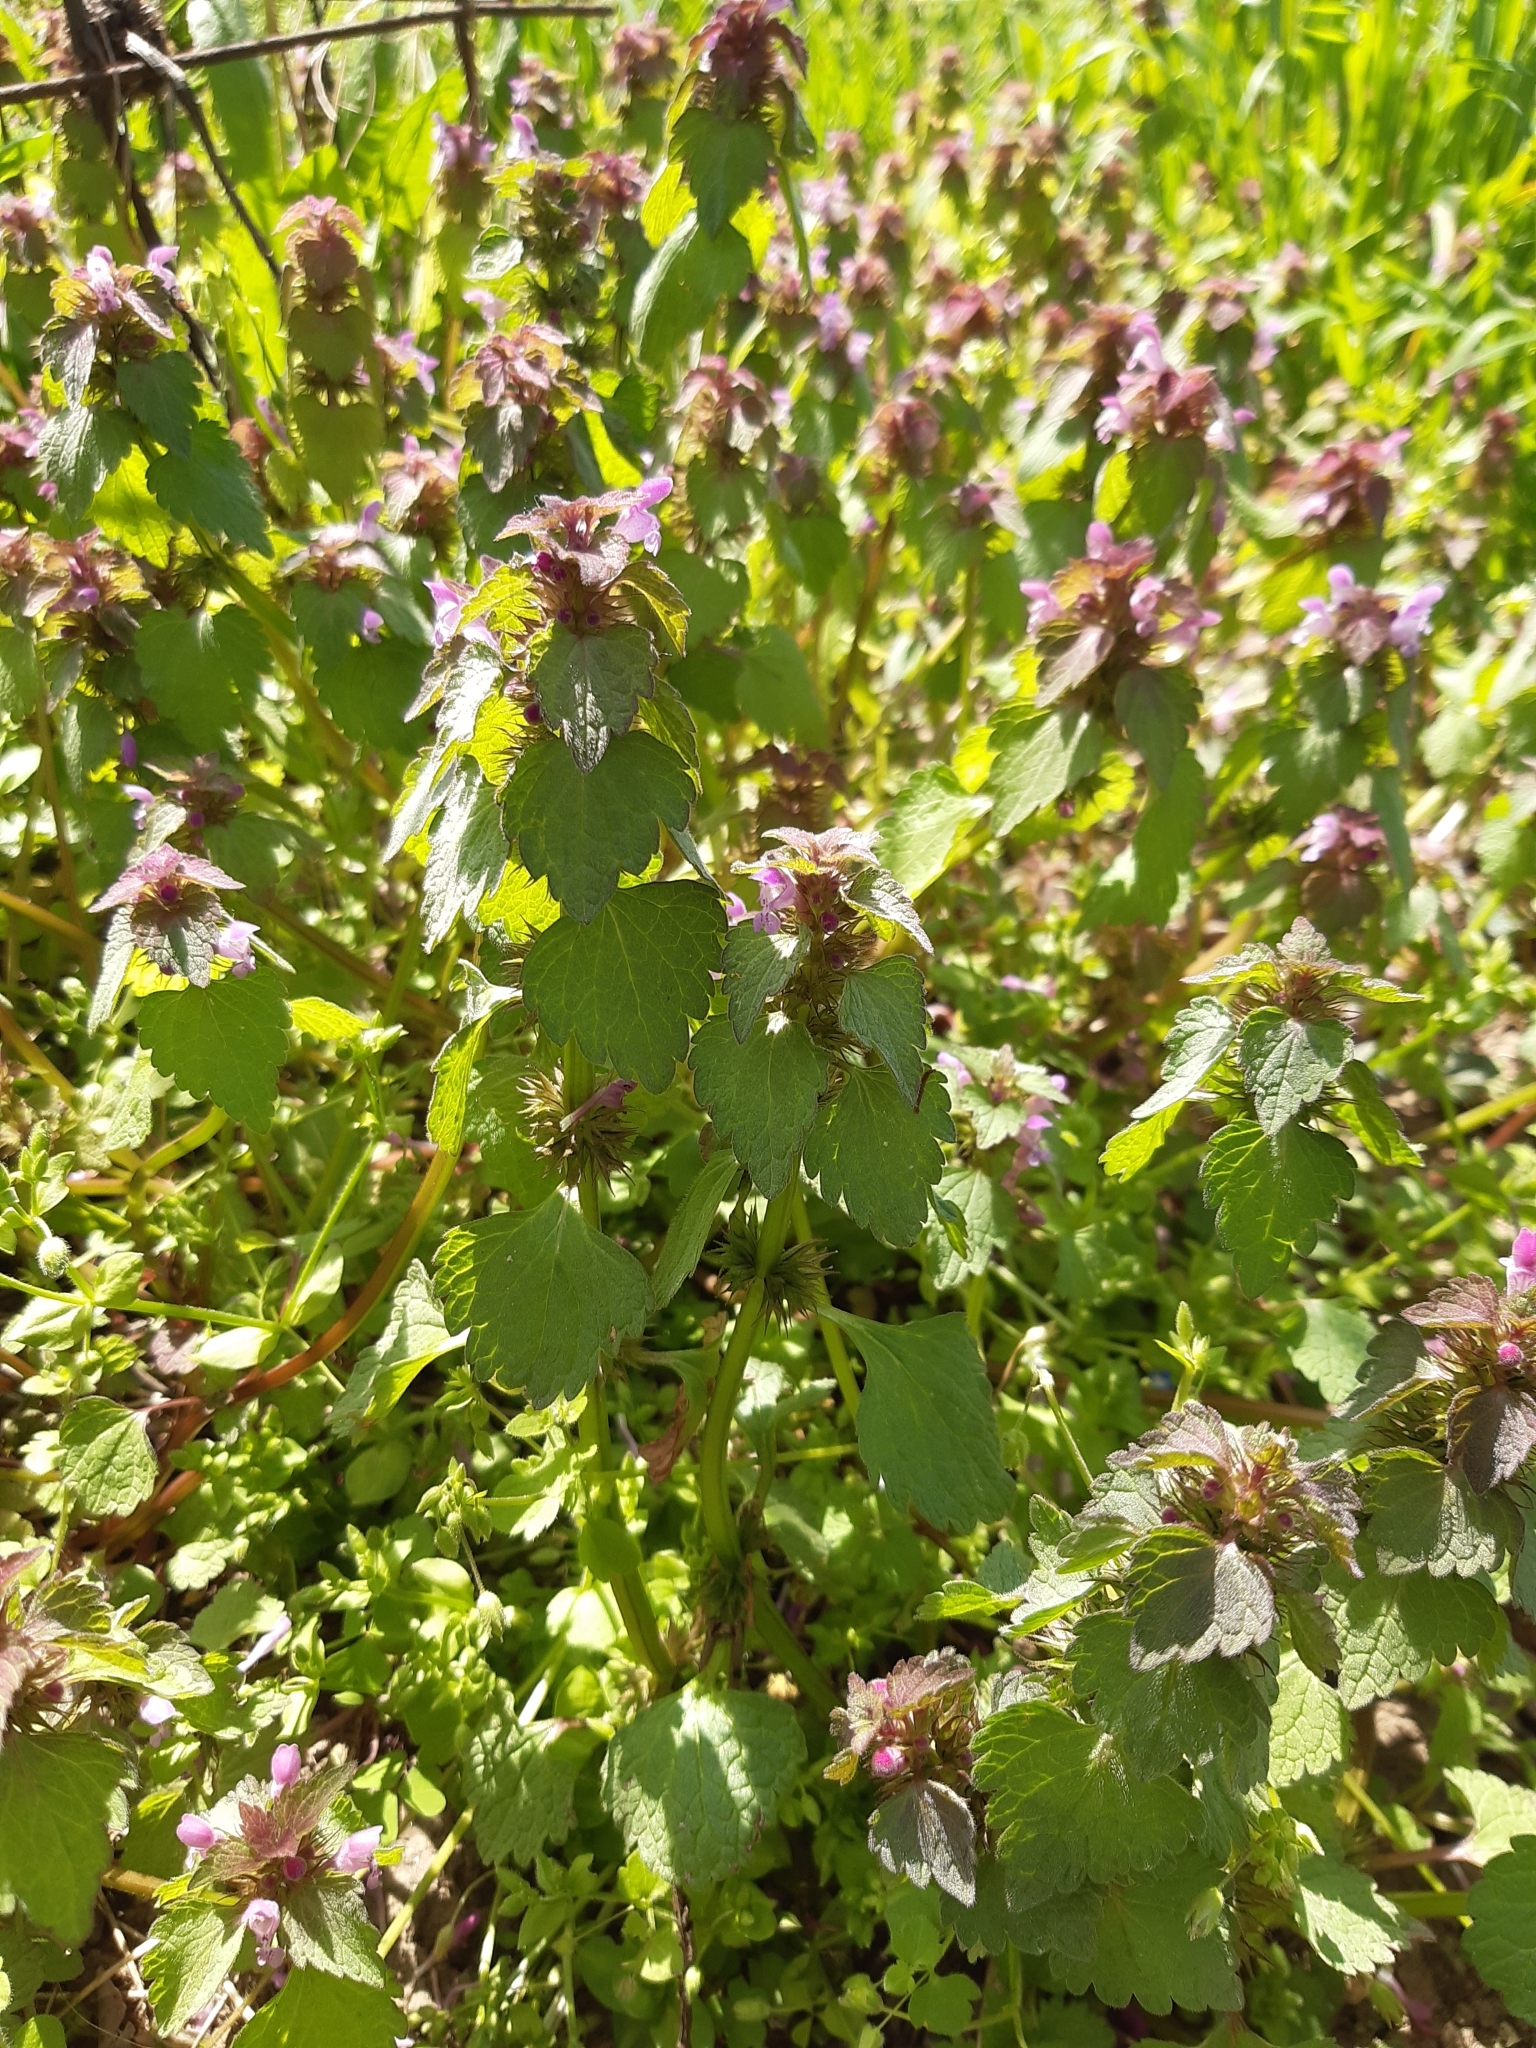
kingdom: Plantae
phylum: Tracheophyta
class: Magnoliopsida
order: Lamiales
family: Lamiaceae
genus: Lamium
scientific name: Lamium purpureum
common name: Red dead-nettle
